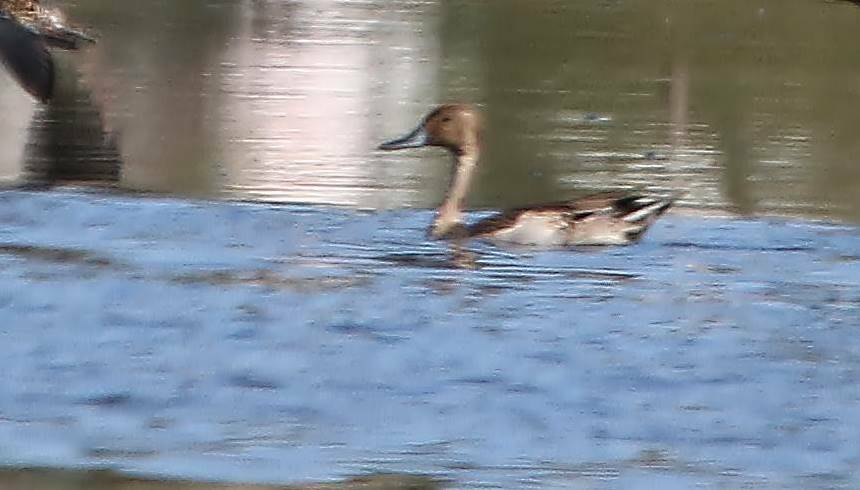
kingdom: Animalia
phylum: Chordata
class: Aves
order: Anseriformes
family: Anatidae
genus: Anas
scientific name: Anas acuta
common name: Northern pintail
